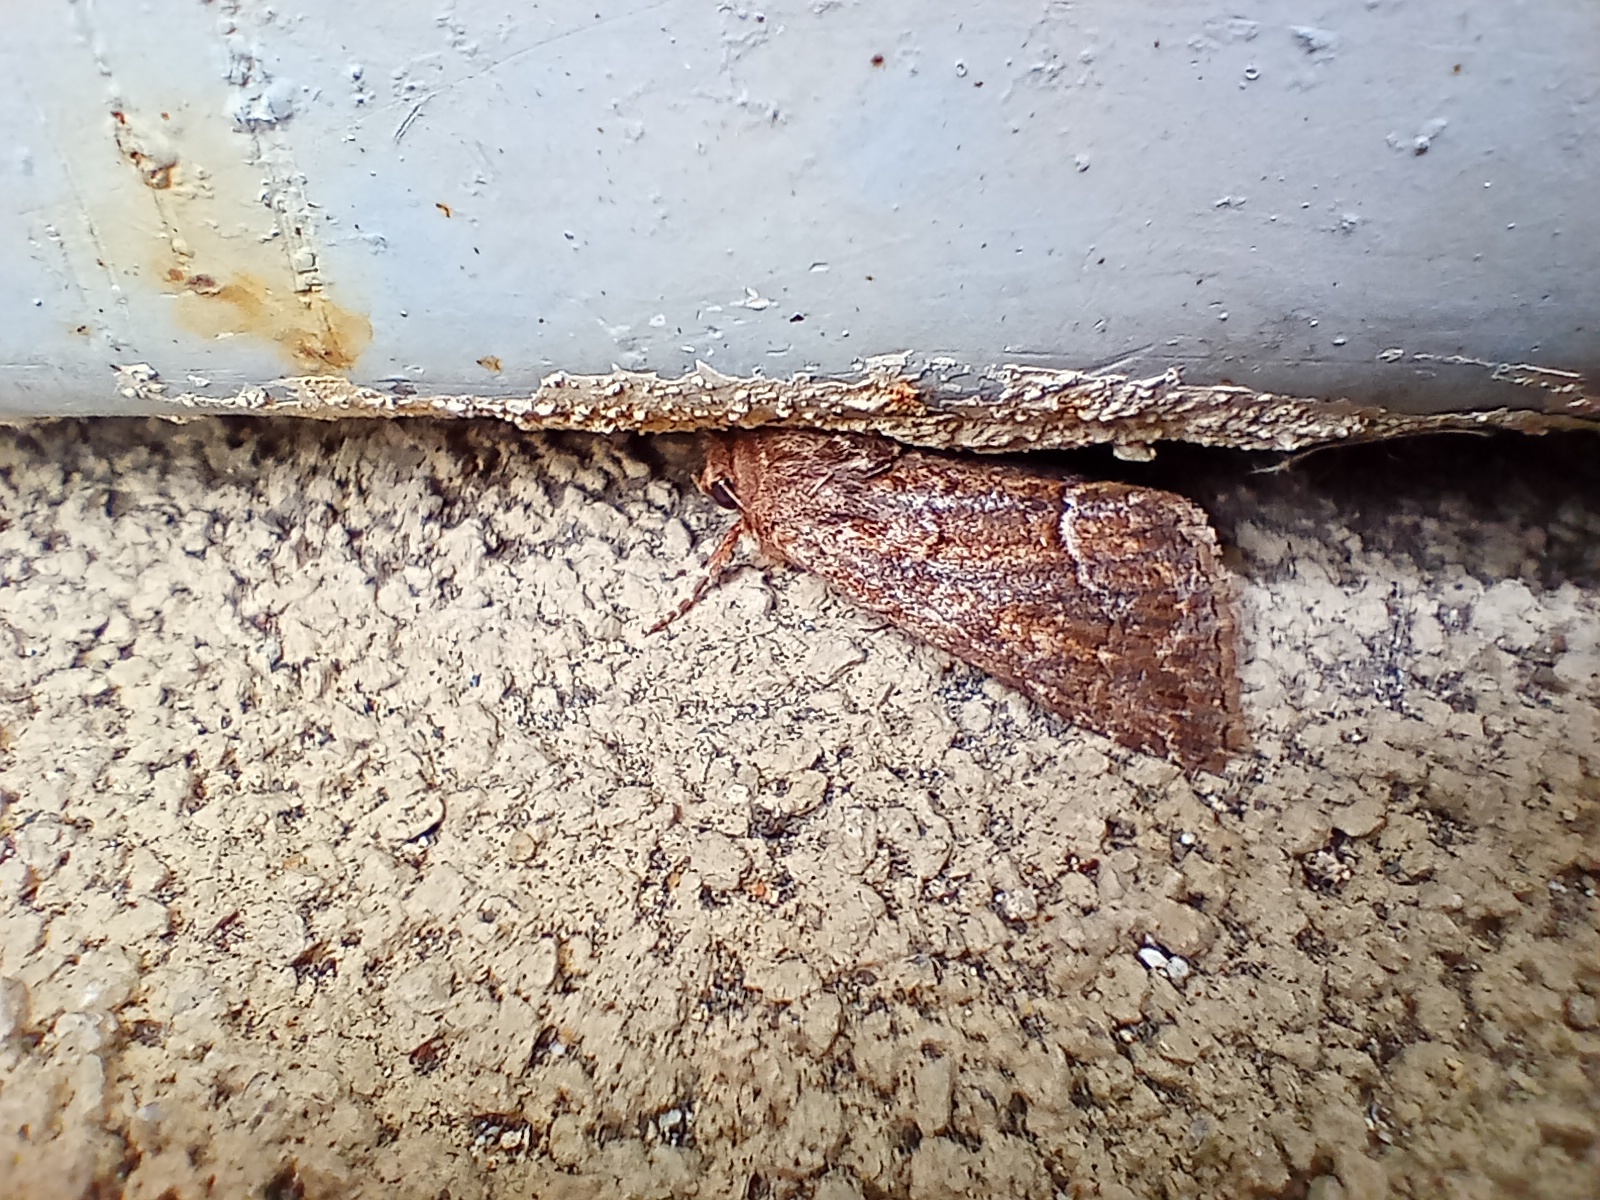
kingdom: Animalia
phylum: Arthropoda
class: Insecta
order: Lepidoptera
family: Noctuidae
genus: Thalpophila
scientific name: Thalpophila matura
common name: Straw underwing
